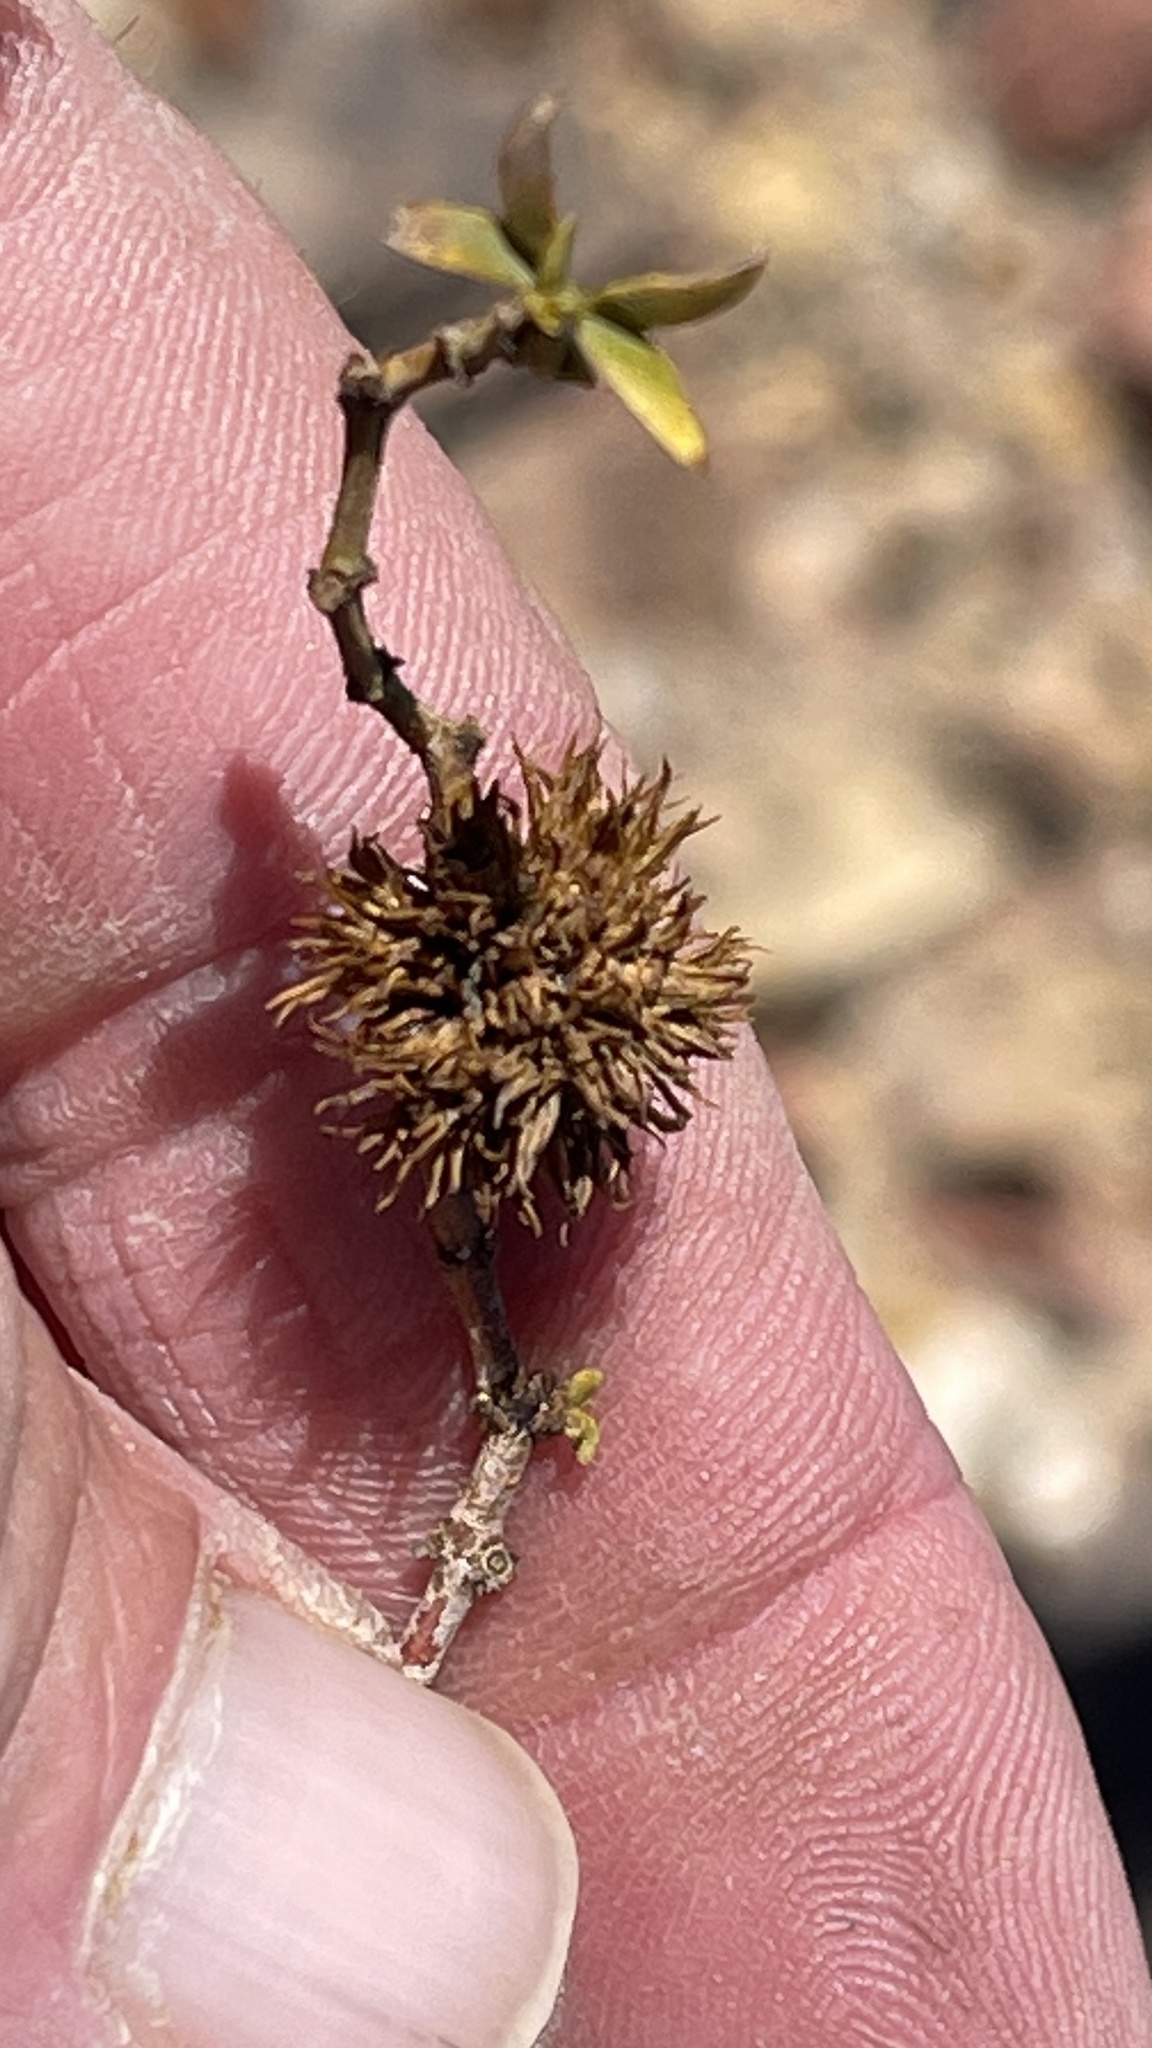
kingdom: Animalia
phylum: Arthropoda
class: Insecta
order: Diptera
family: Cecidomyiidae
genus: Asphondylia
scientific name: Asphondylia auripila
